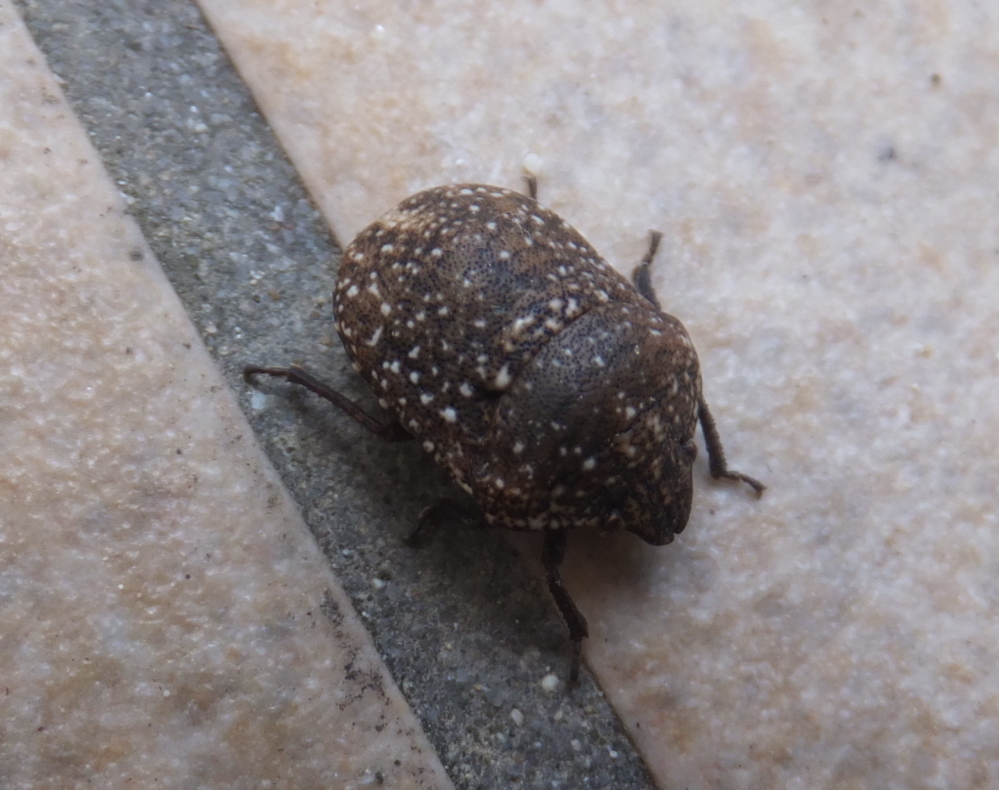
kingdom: Animalia
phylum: Arthropoda
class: Insecta
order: Hemiptera
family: Scutelleridae
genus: Psacasta
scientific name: Psacasta exanthematica
